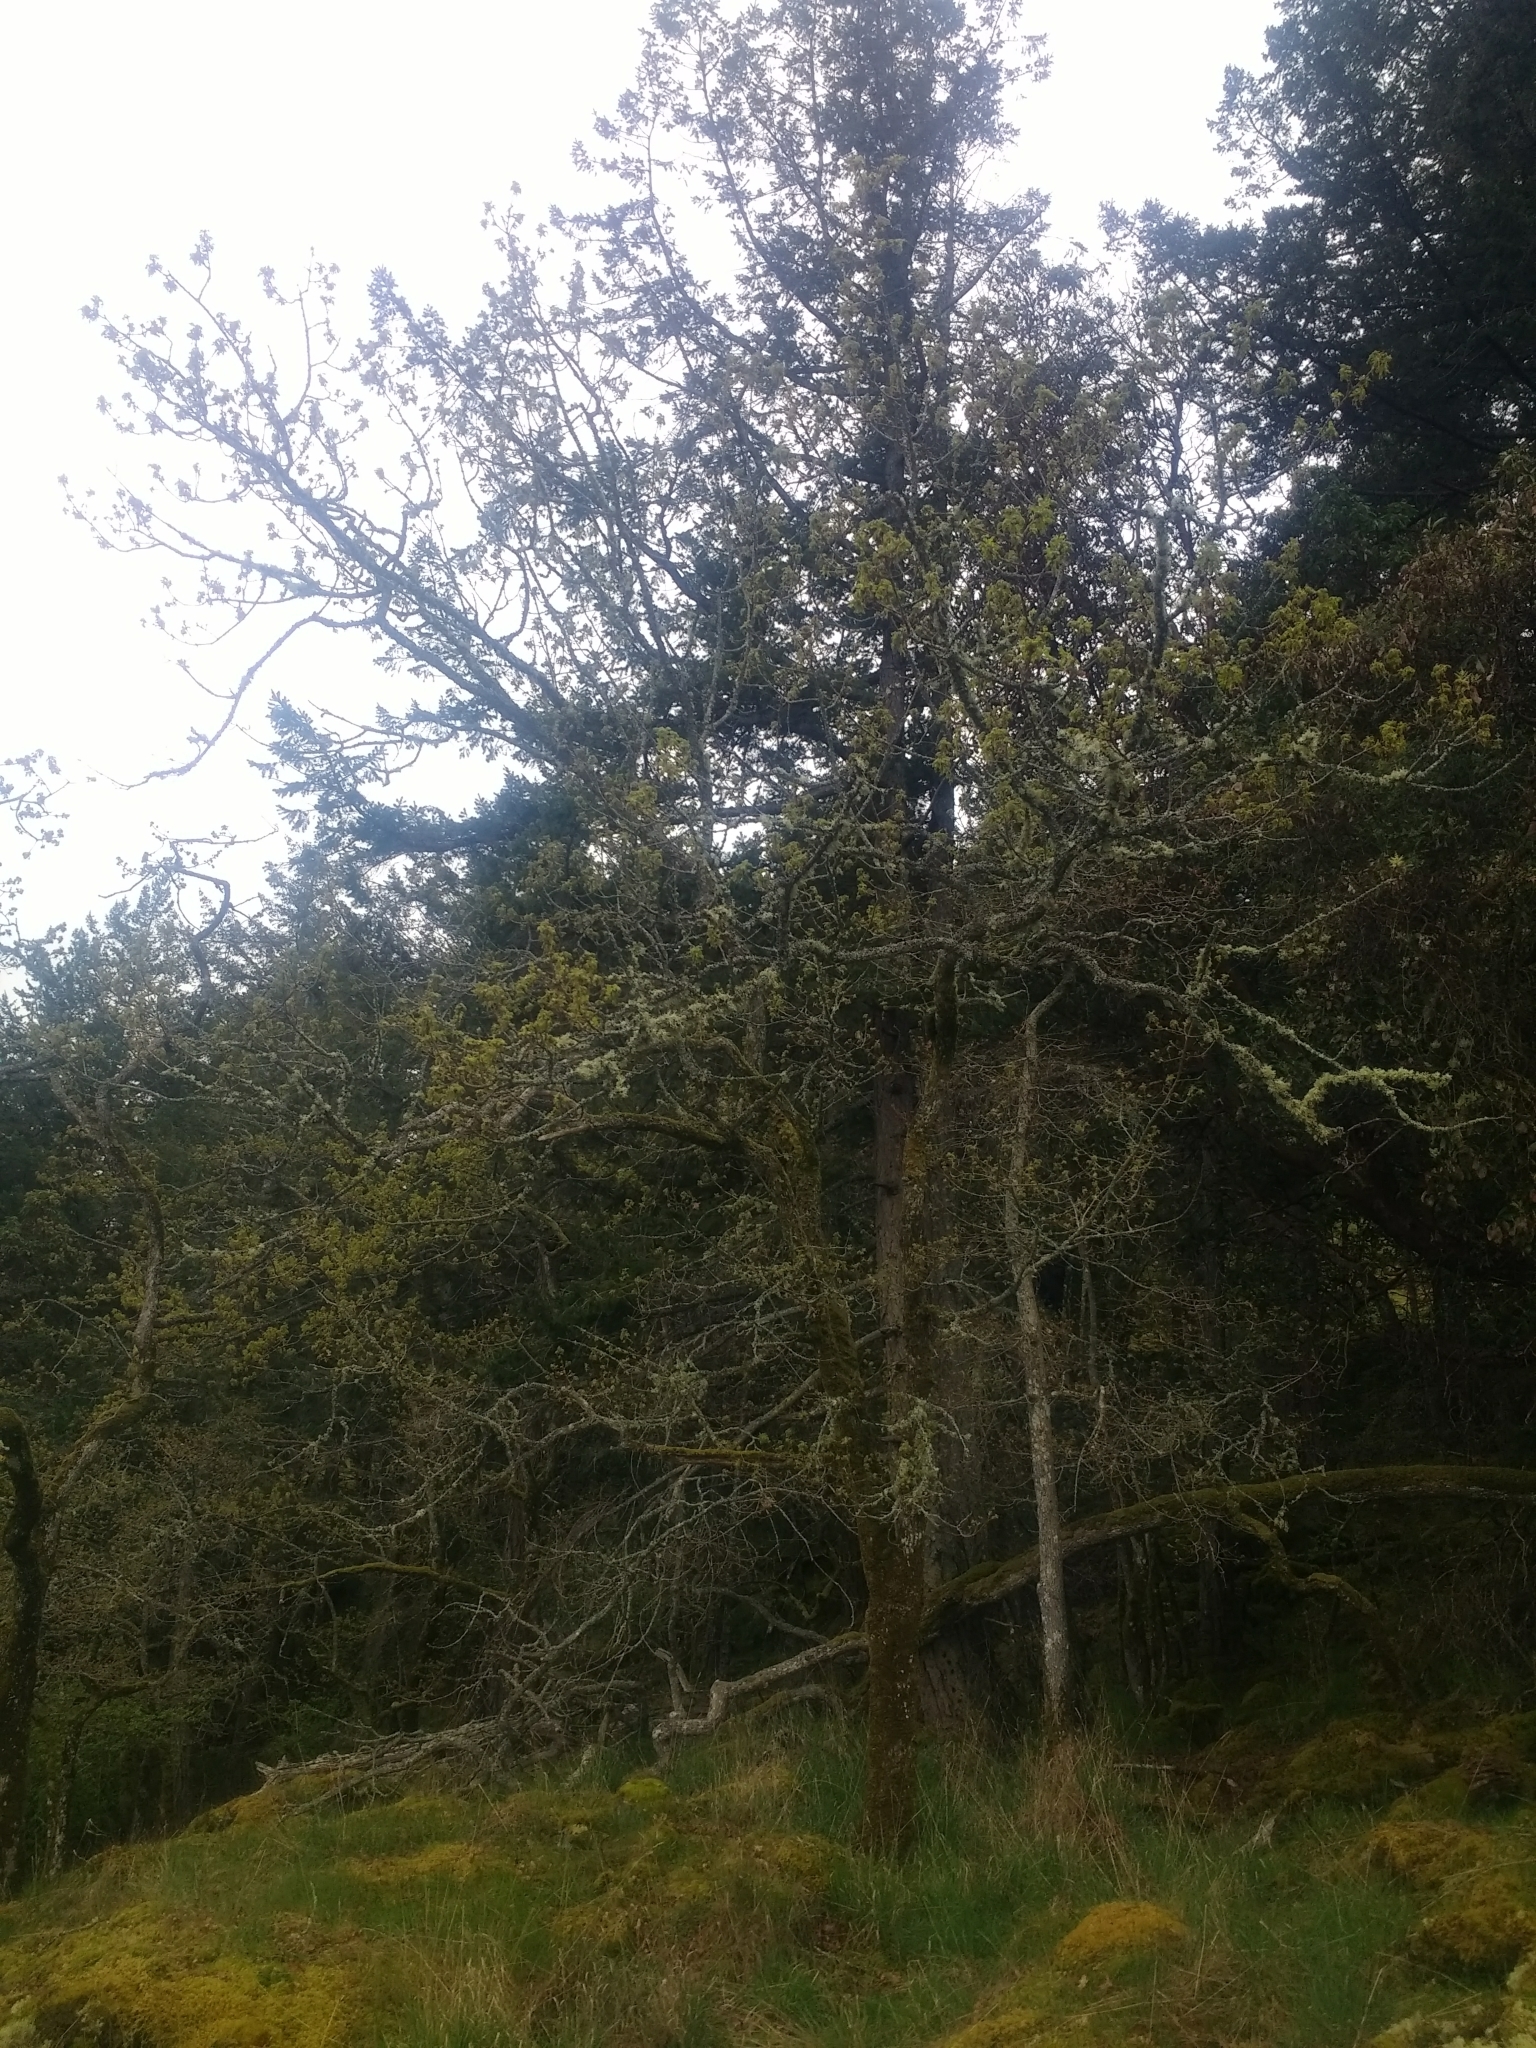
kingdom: Plantae
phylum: Tracheophyta
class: Magnoliopsida
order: Fagales
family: Fagaceae
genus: Quercus
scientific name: Quercus garryana
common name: Garry oak
